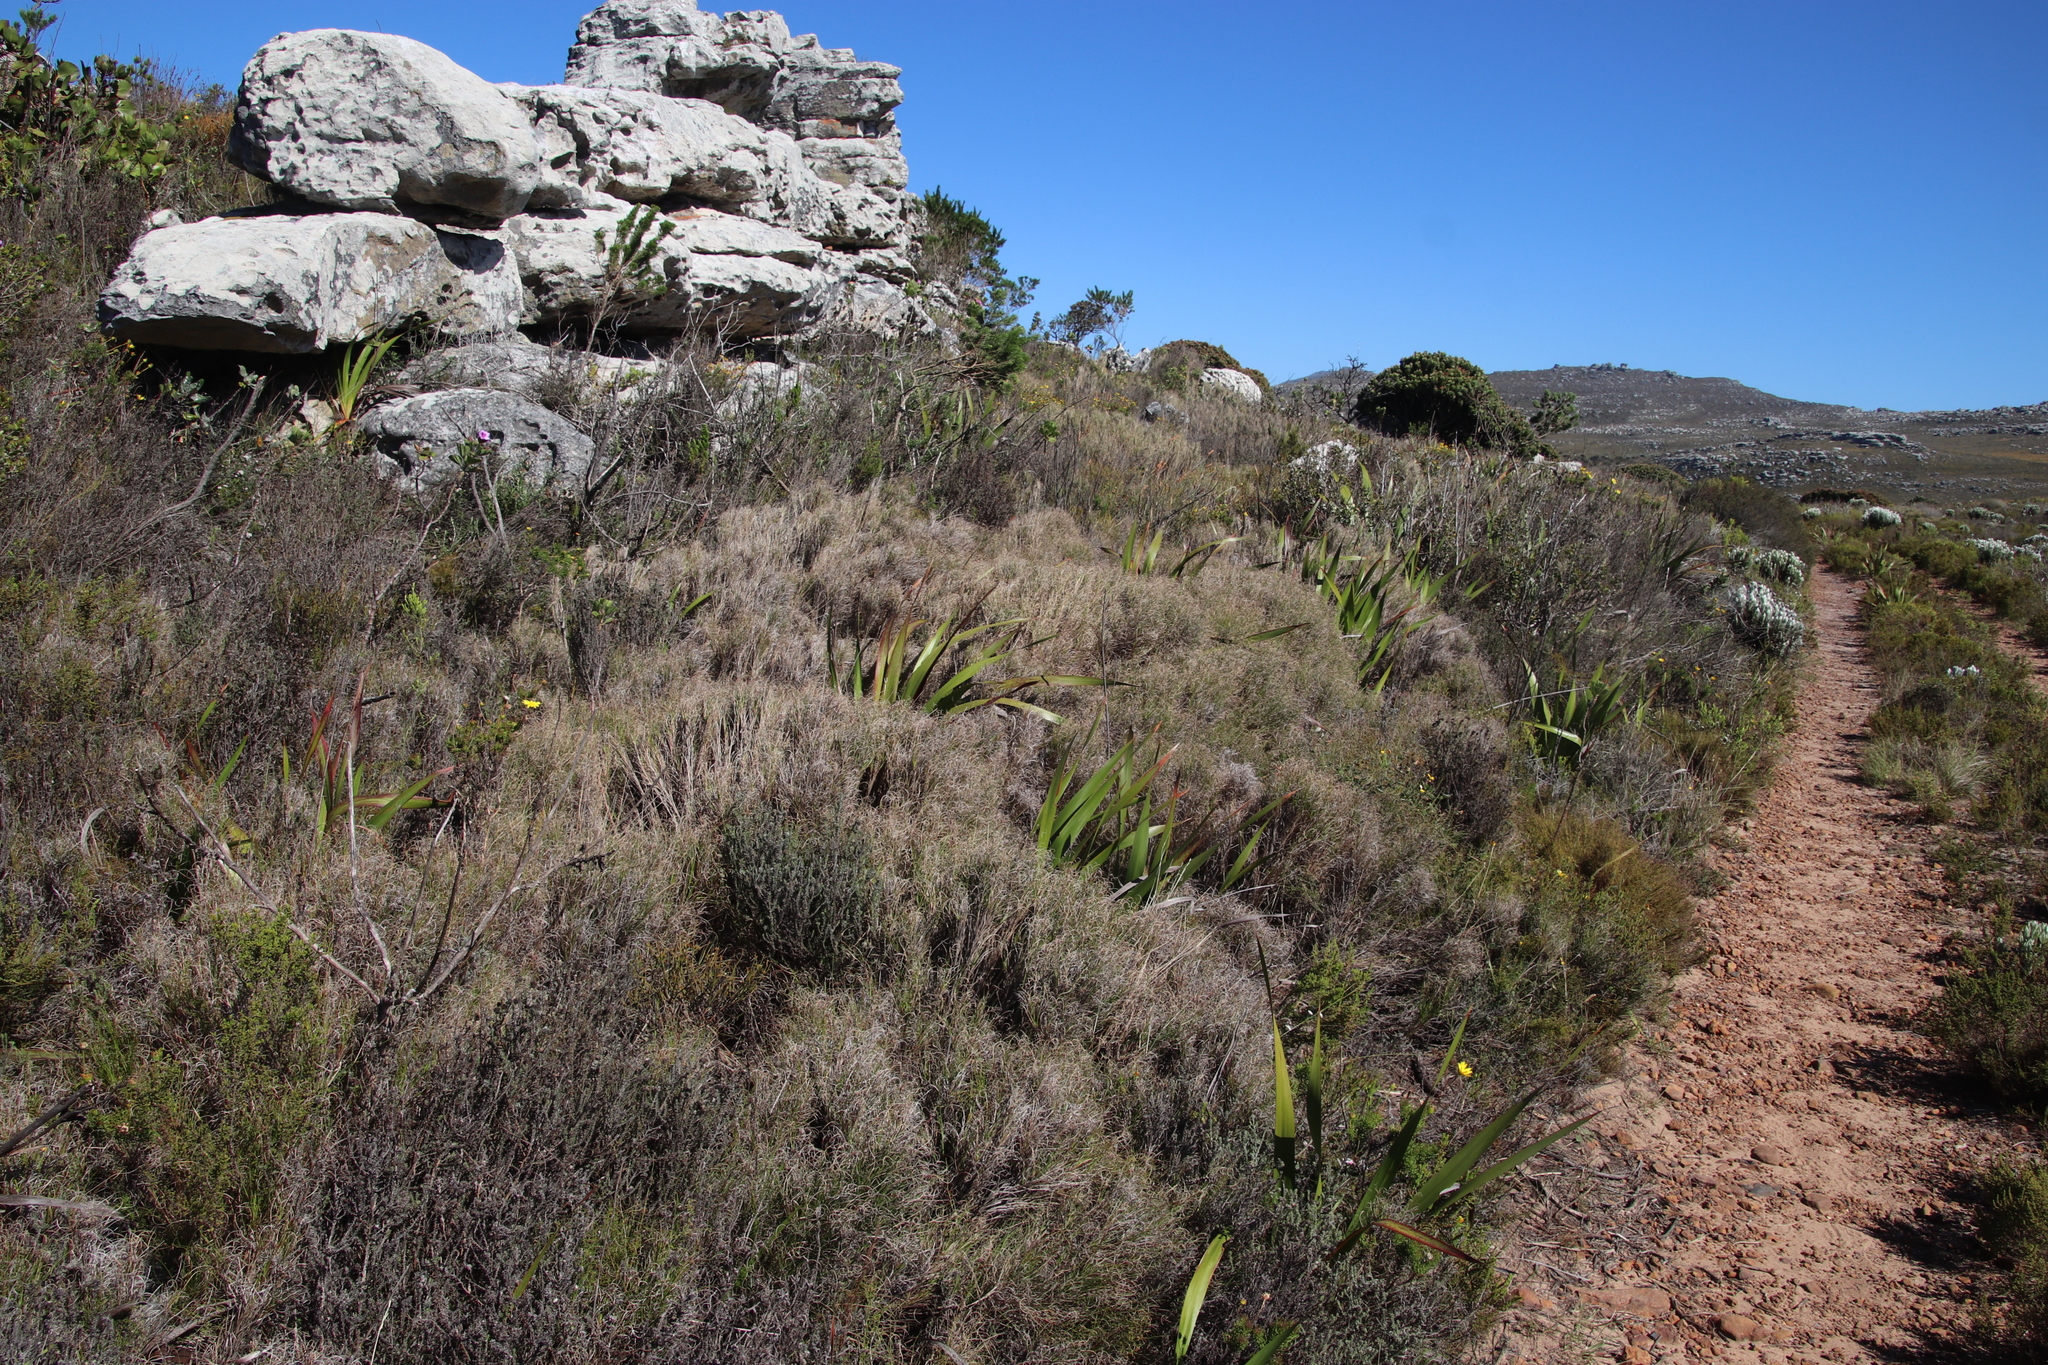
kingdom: Plantae
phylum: Tracheophyta
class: Liliopsida
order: Poales
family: Poaceae
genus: Pseudopentameris
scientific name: Pseudopentameris macrantha
